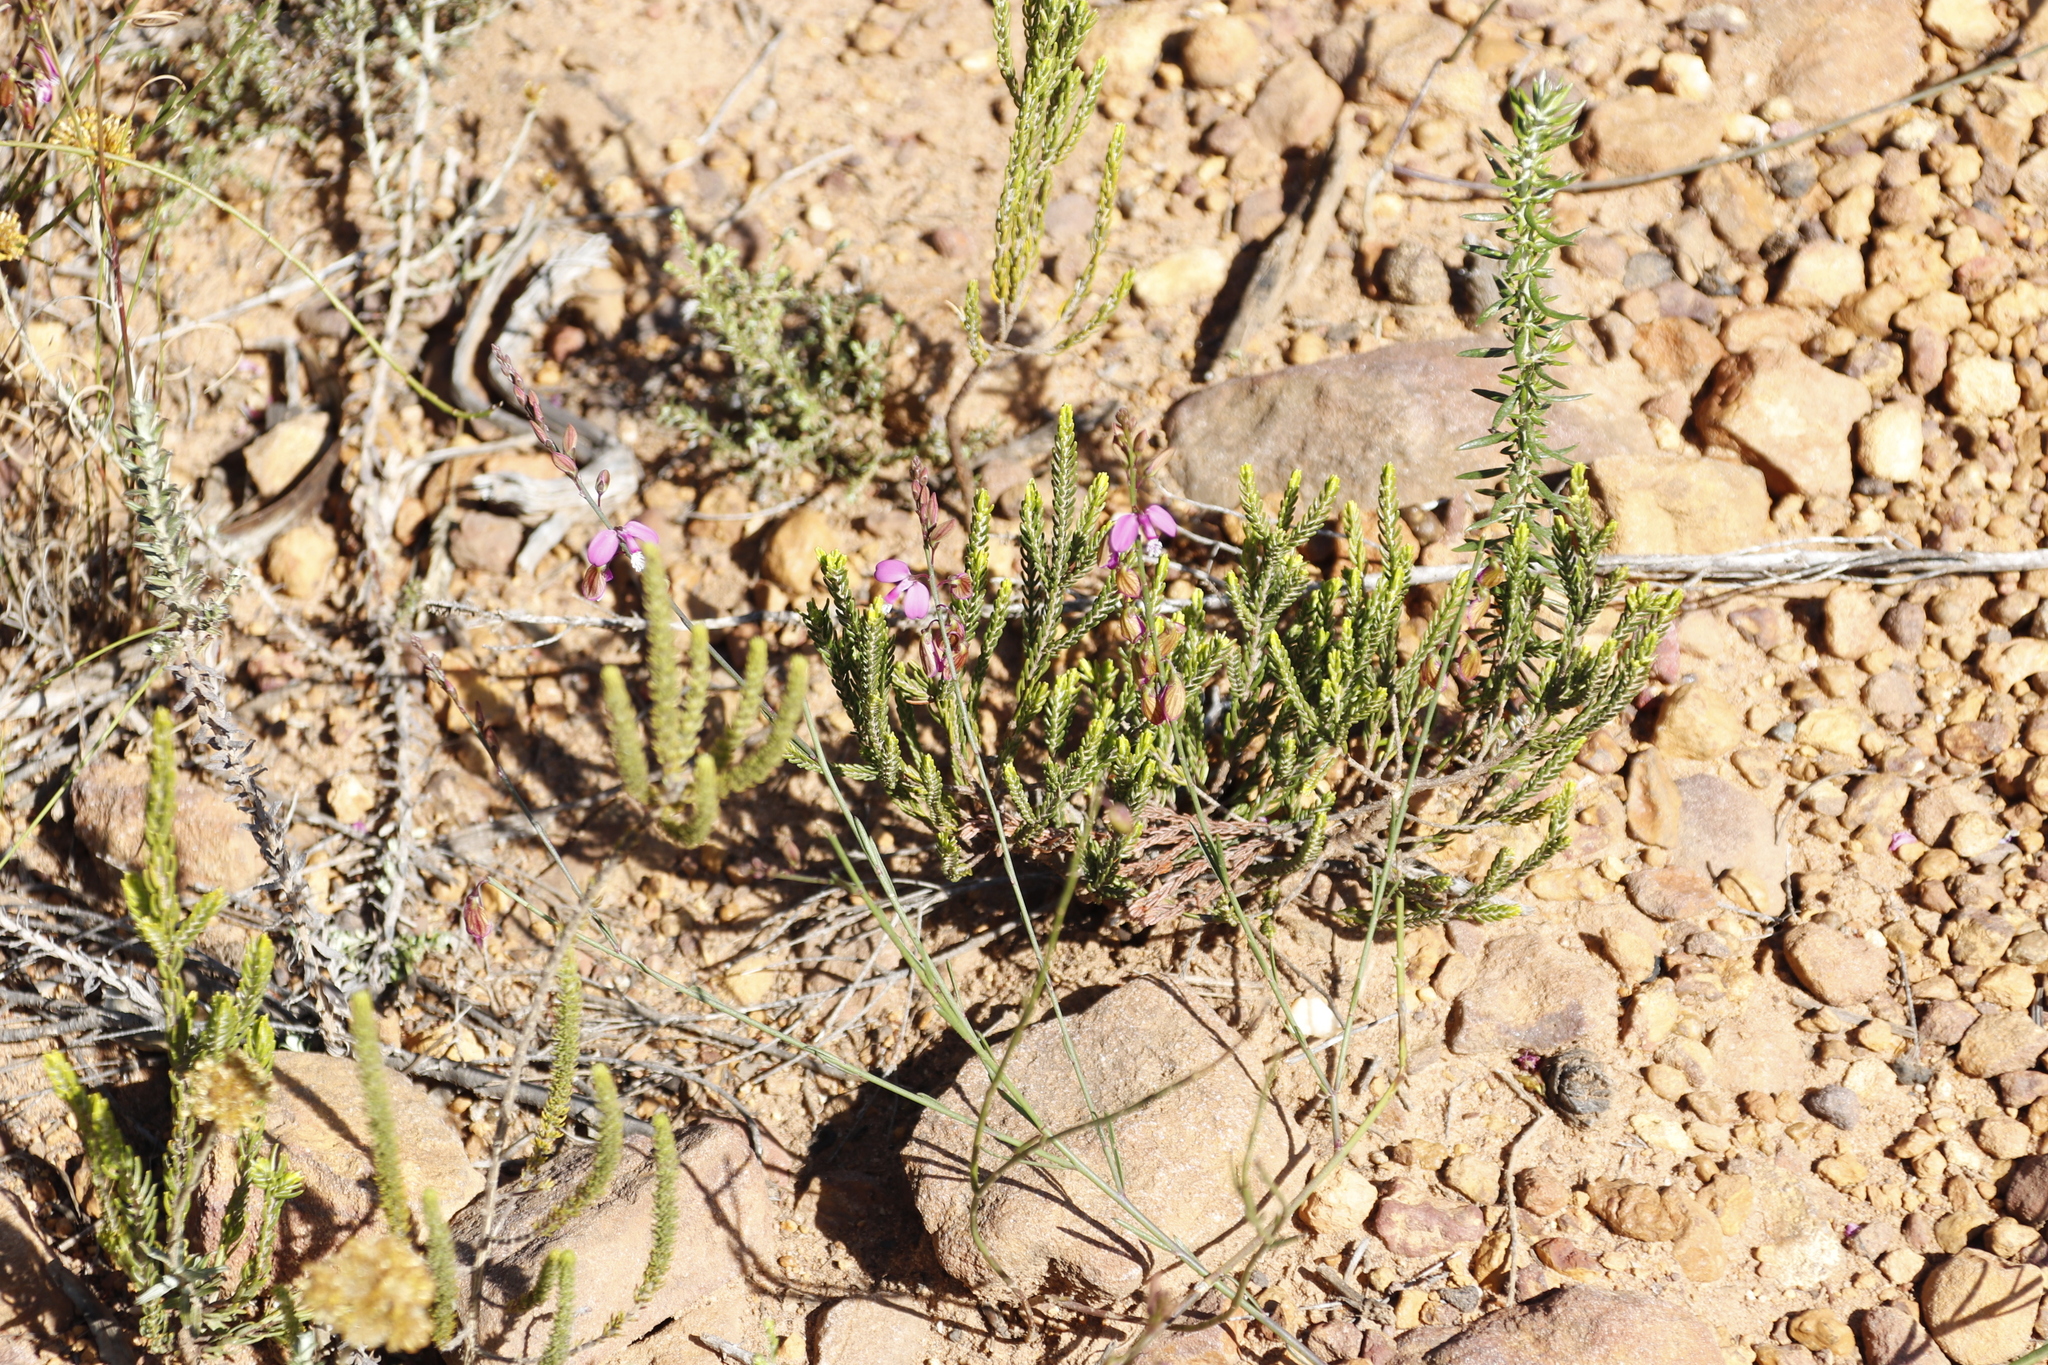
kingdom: Plantae
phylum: Tracheophyta
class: Magnoliopsida
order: Fabales
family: Polygalaceae
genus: Polygala
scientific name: Polygala garcini
